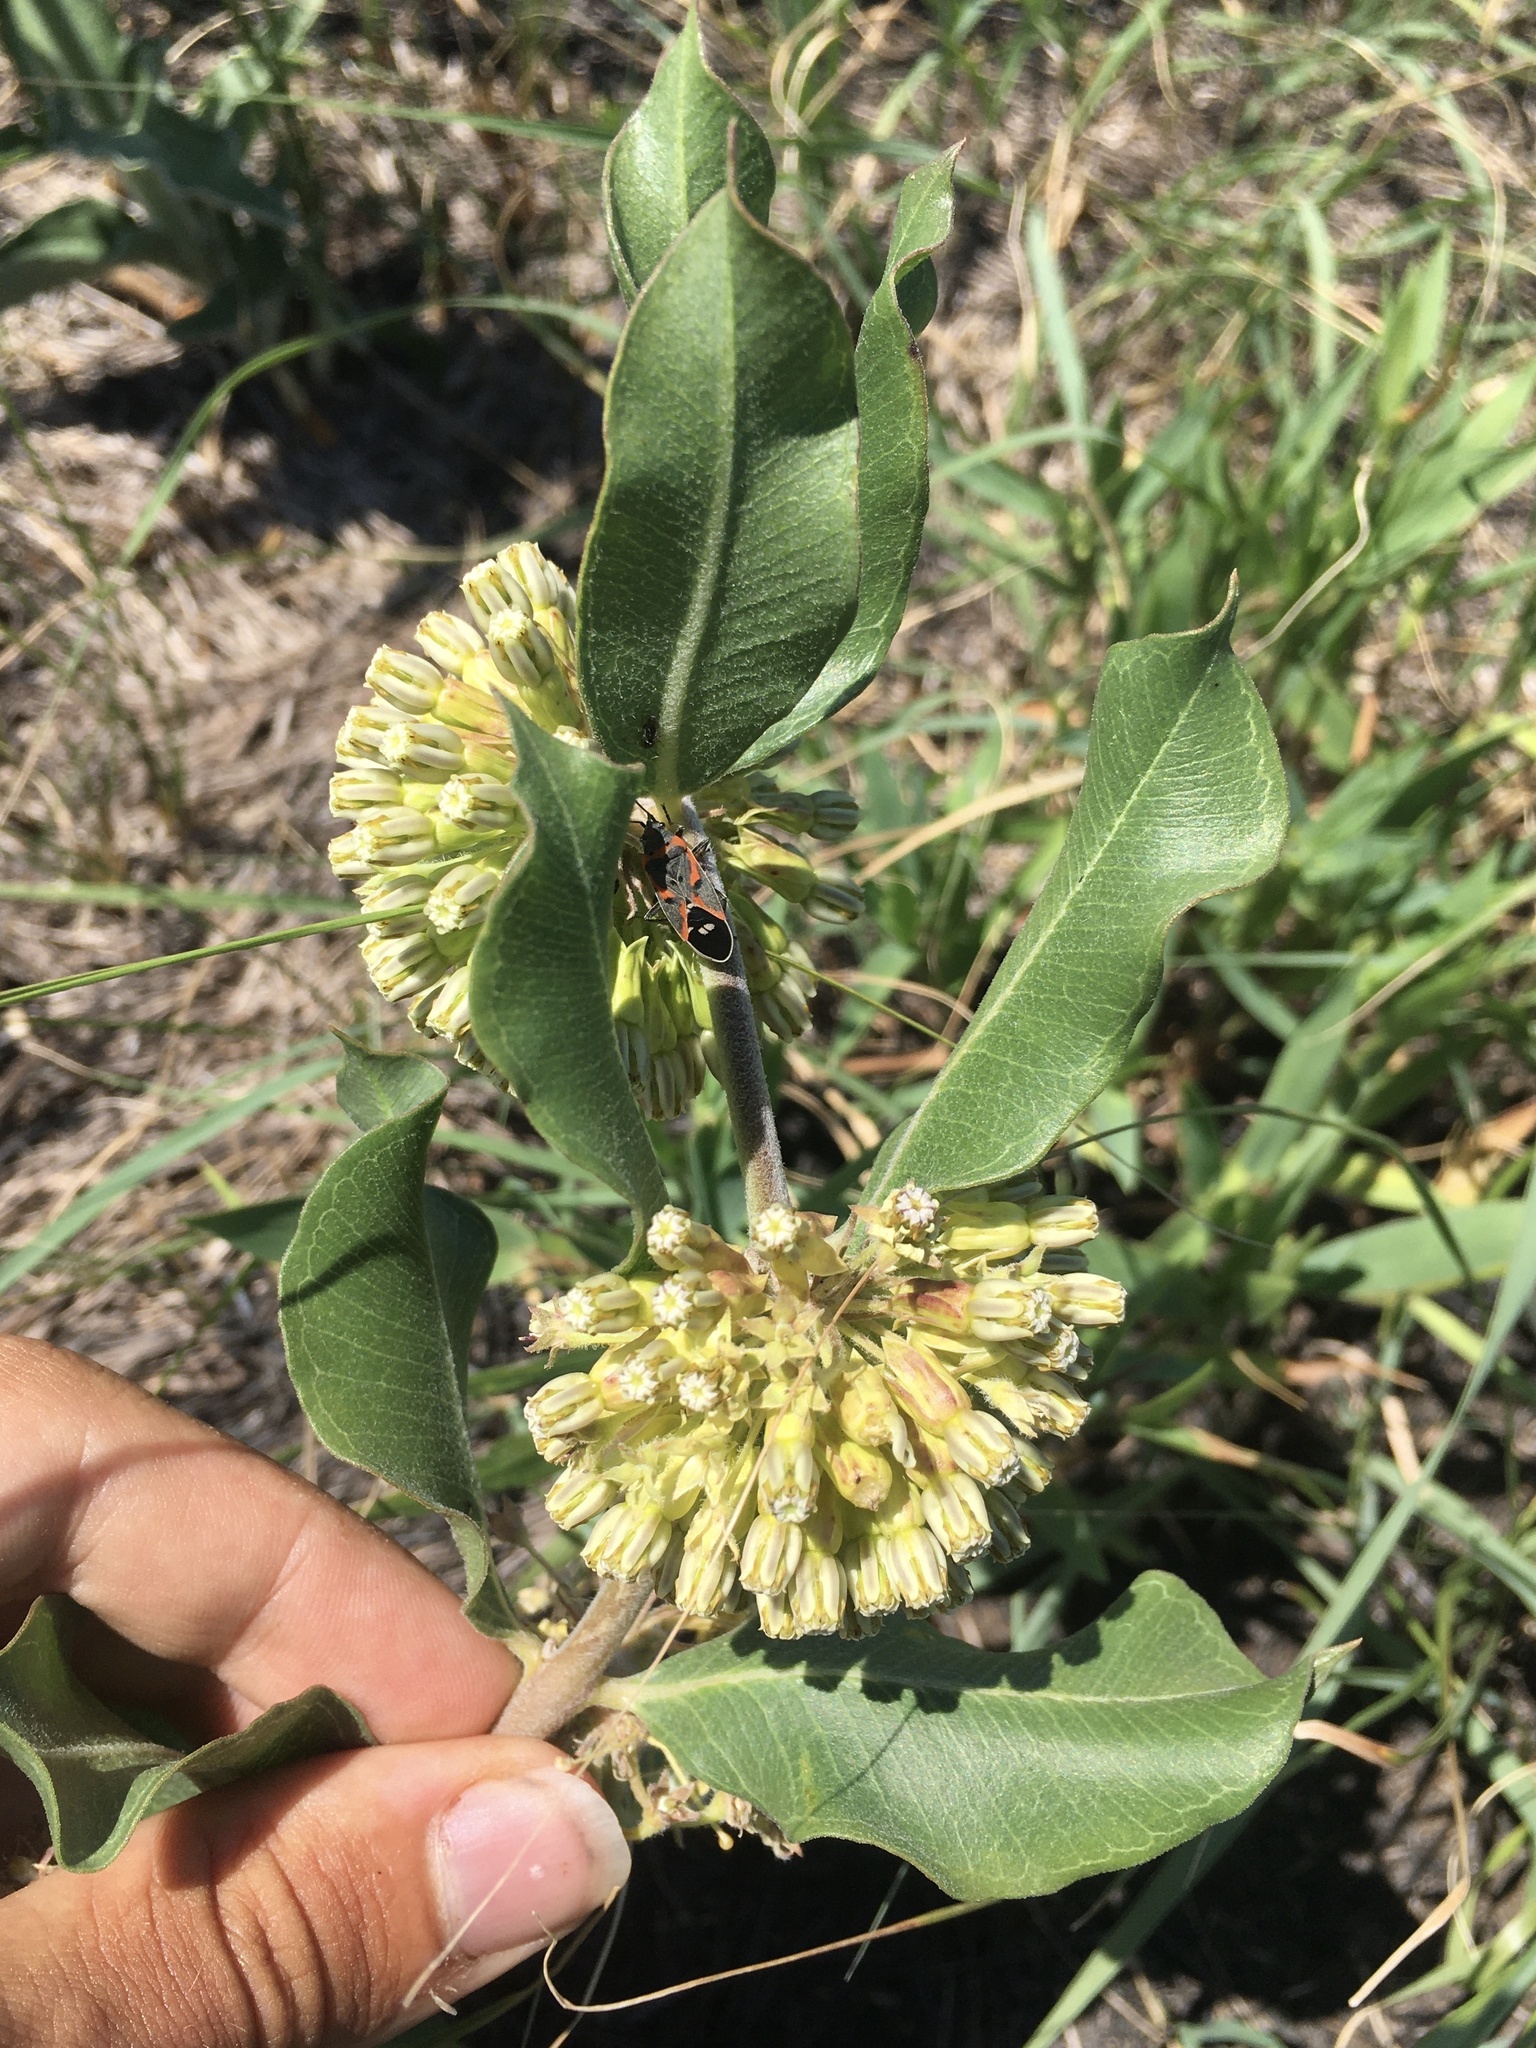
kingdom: Plantae
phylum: Tracheophyta
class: Magnoliopsida
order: Gentianales
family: Apocynaceae
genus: Asclepias
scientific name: Asclepias viridiflora
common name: Green comet milkweed
